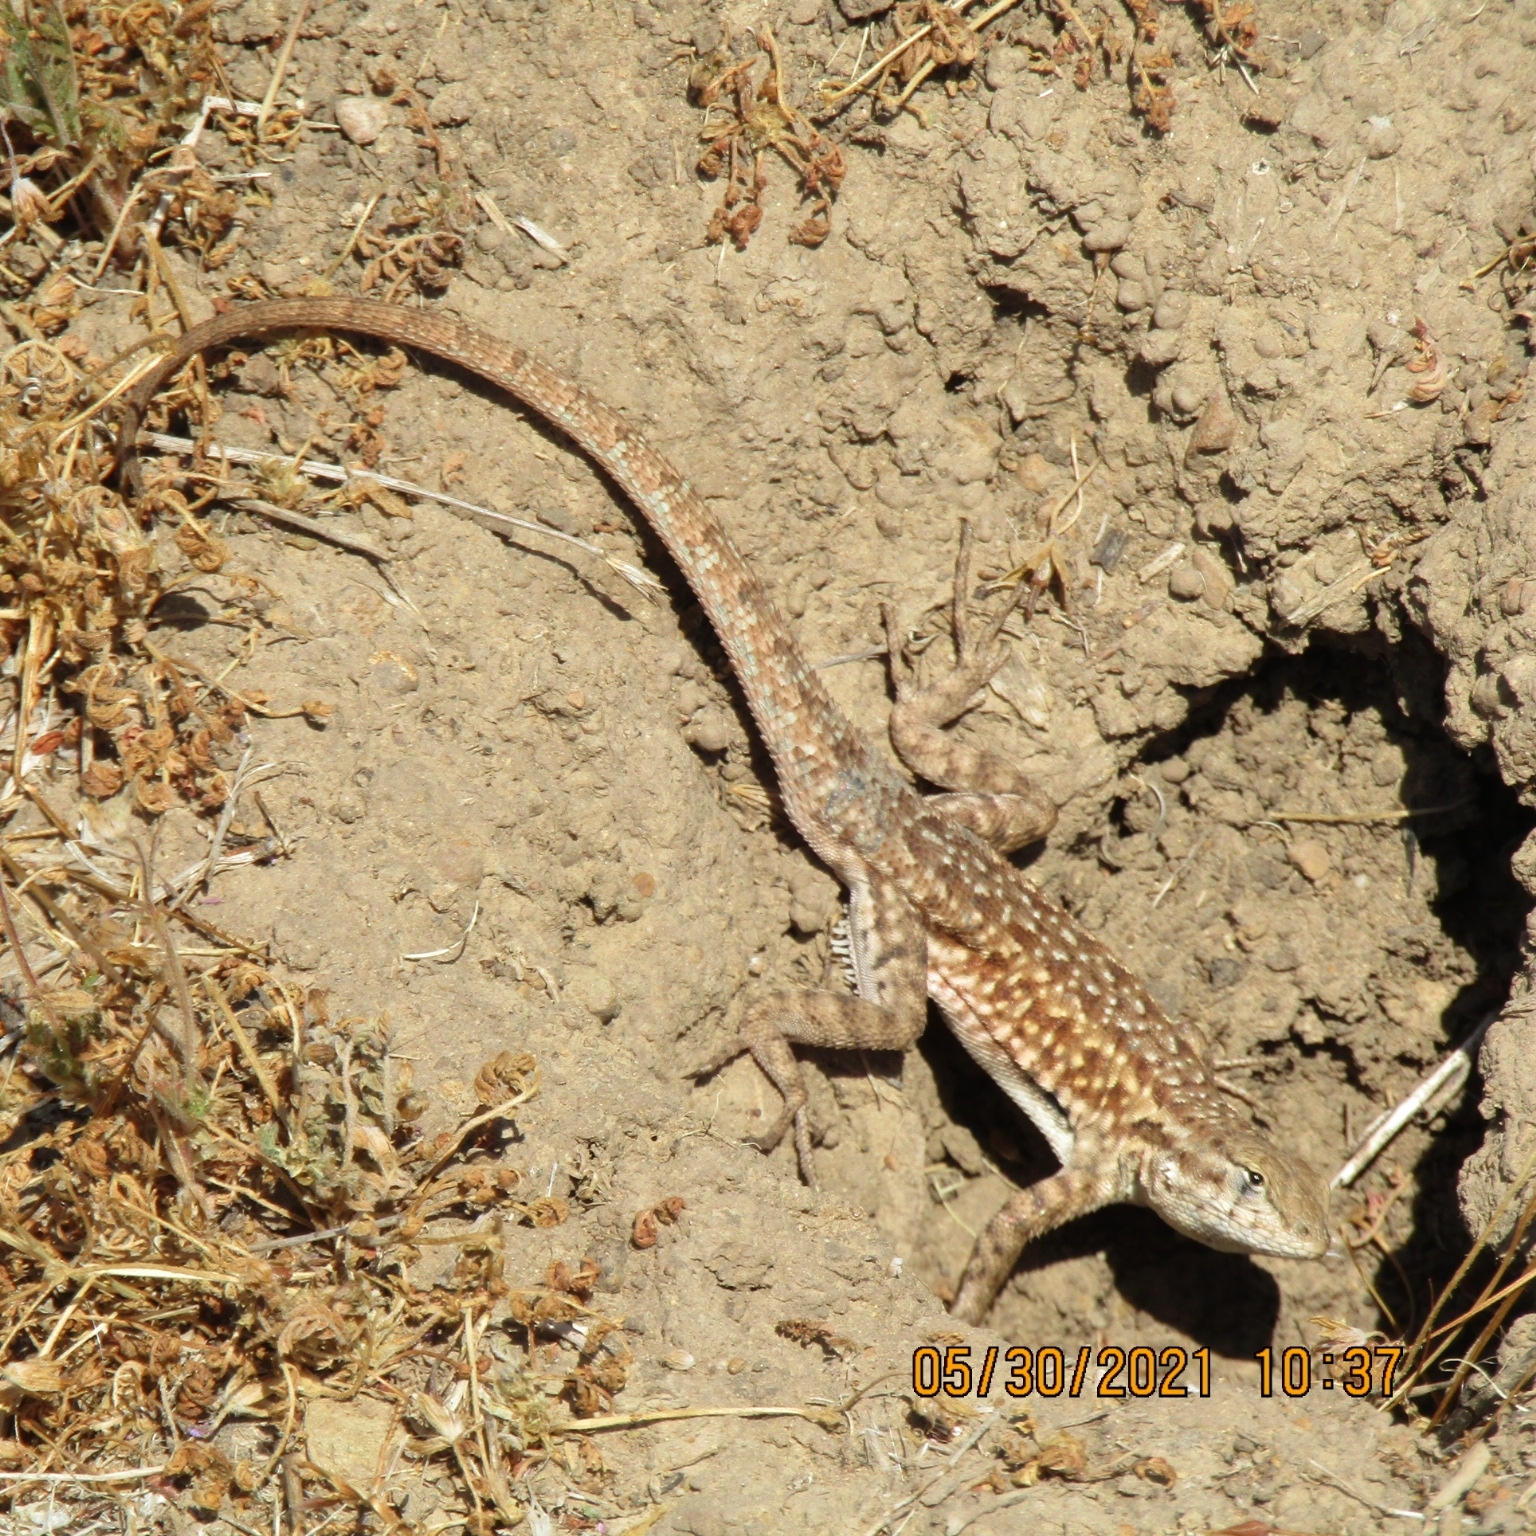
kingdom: Animalia
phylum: Chordata
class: Squamata
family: Phrynosomatidae
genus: Uta
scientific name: Uta stansburiana
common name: Side-blotched lizard
